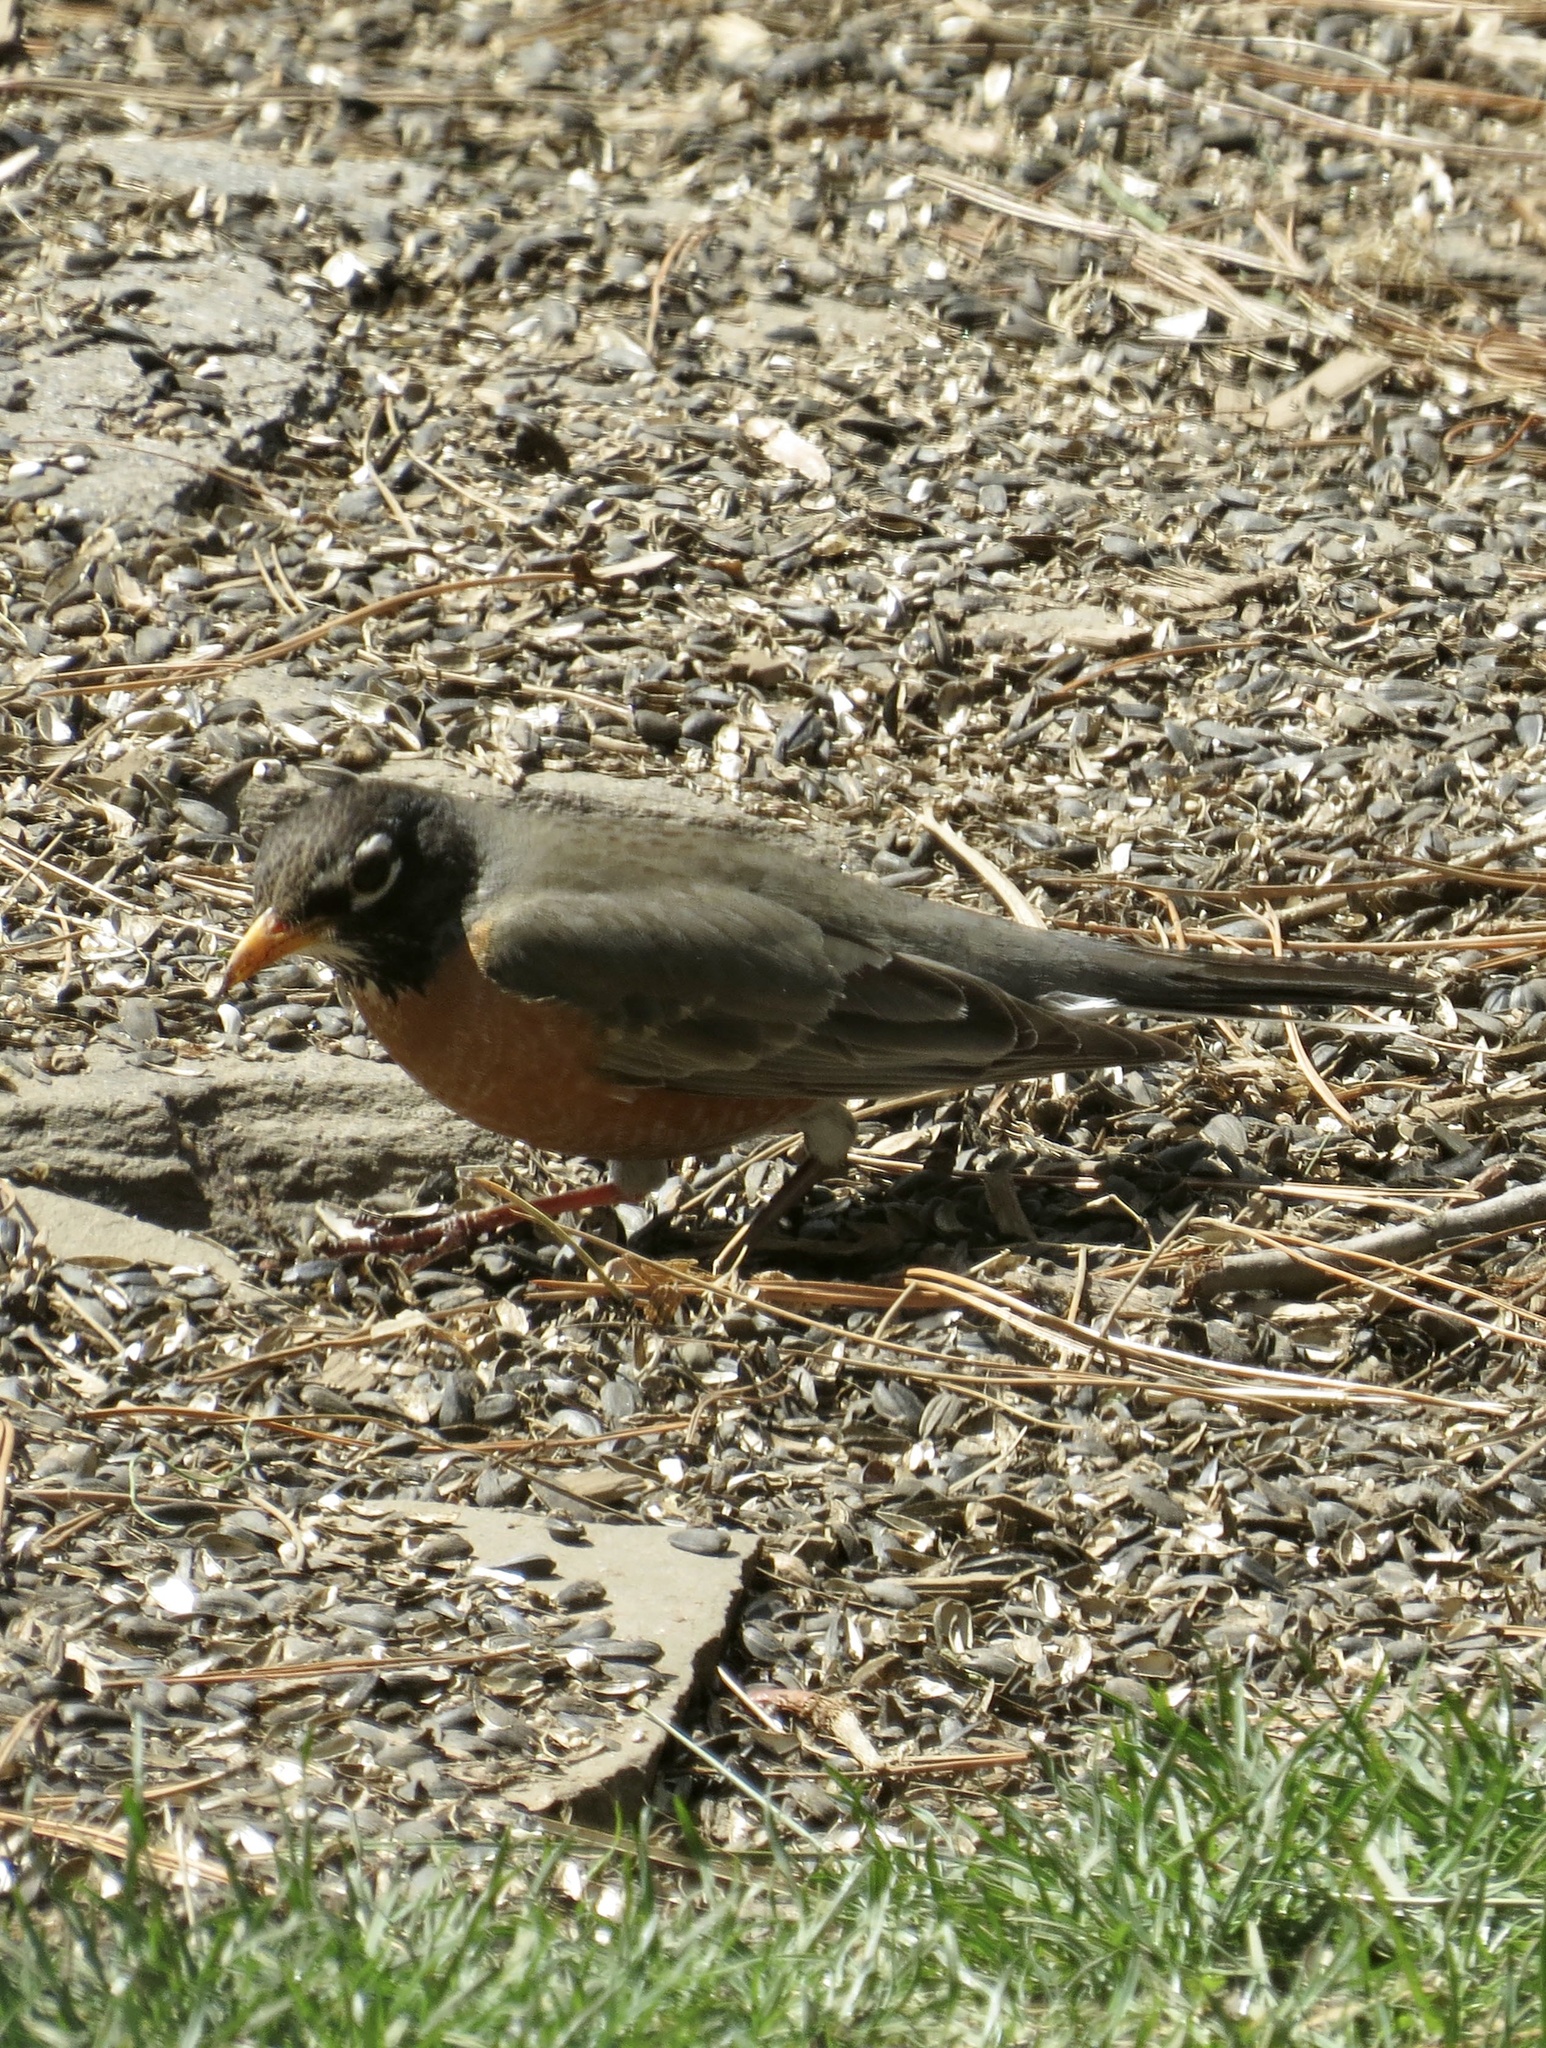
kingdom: Animalia
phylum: Chordata
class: Aves
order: Passeriformes
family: Turdidae
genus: Turdus
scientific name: Turdus migratorius
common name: American robin
